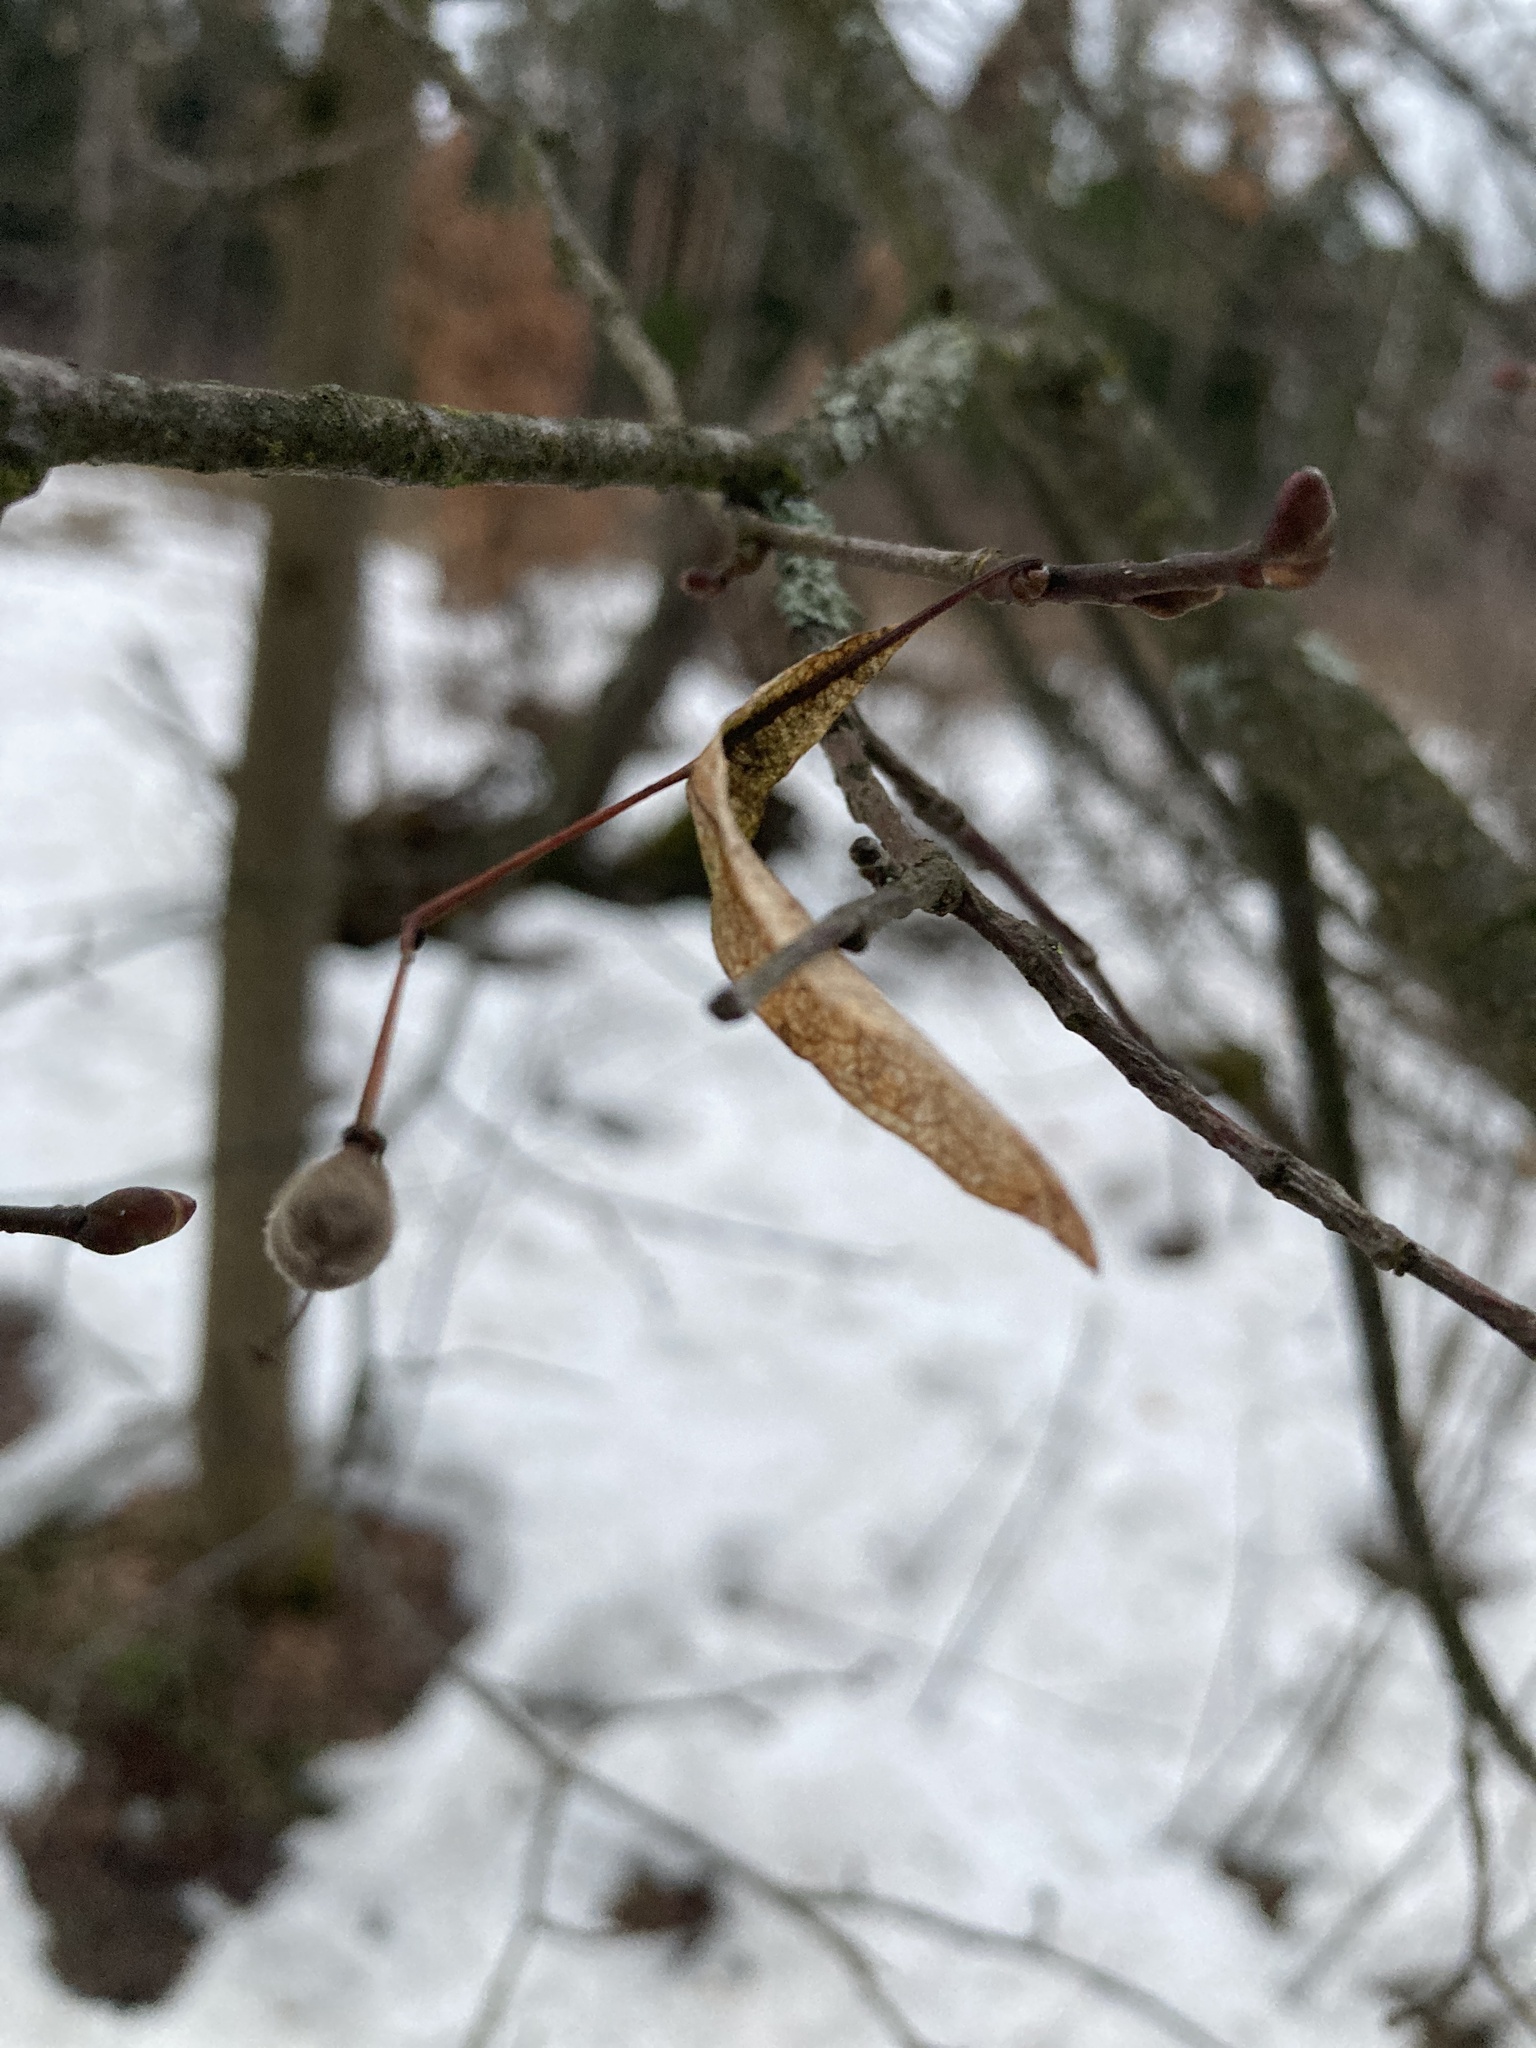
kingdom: Plantae
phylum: Tracheophyta
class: Magnoliopsida
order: Malvales
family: Malvaceae
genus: Tilia
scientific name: Tilia cordata
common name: Small-leaved lime
